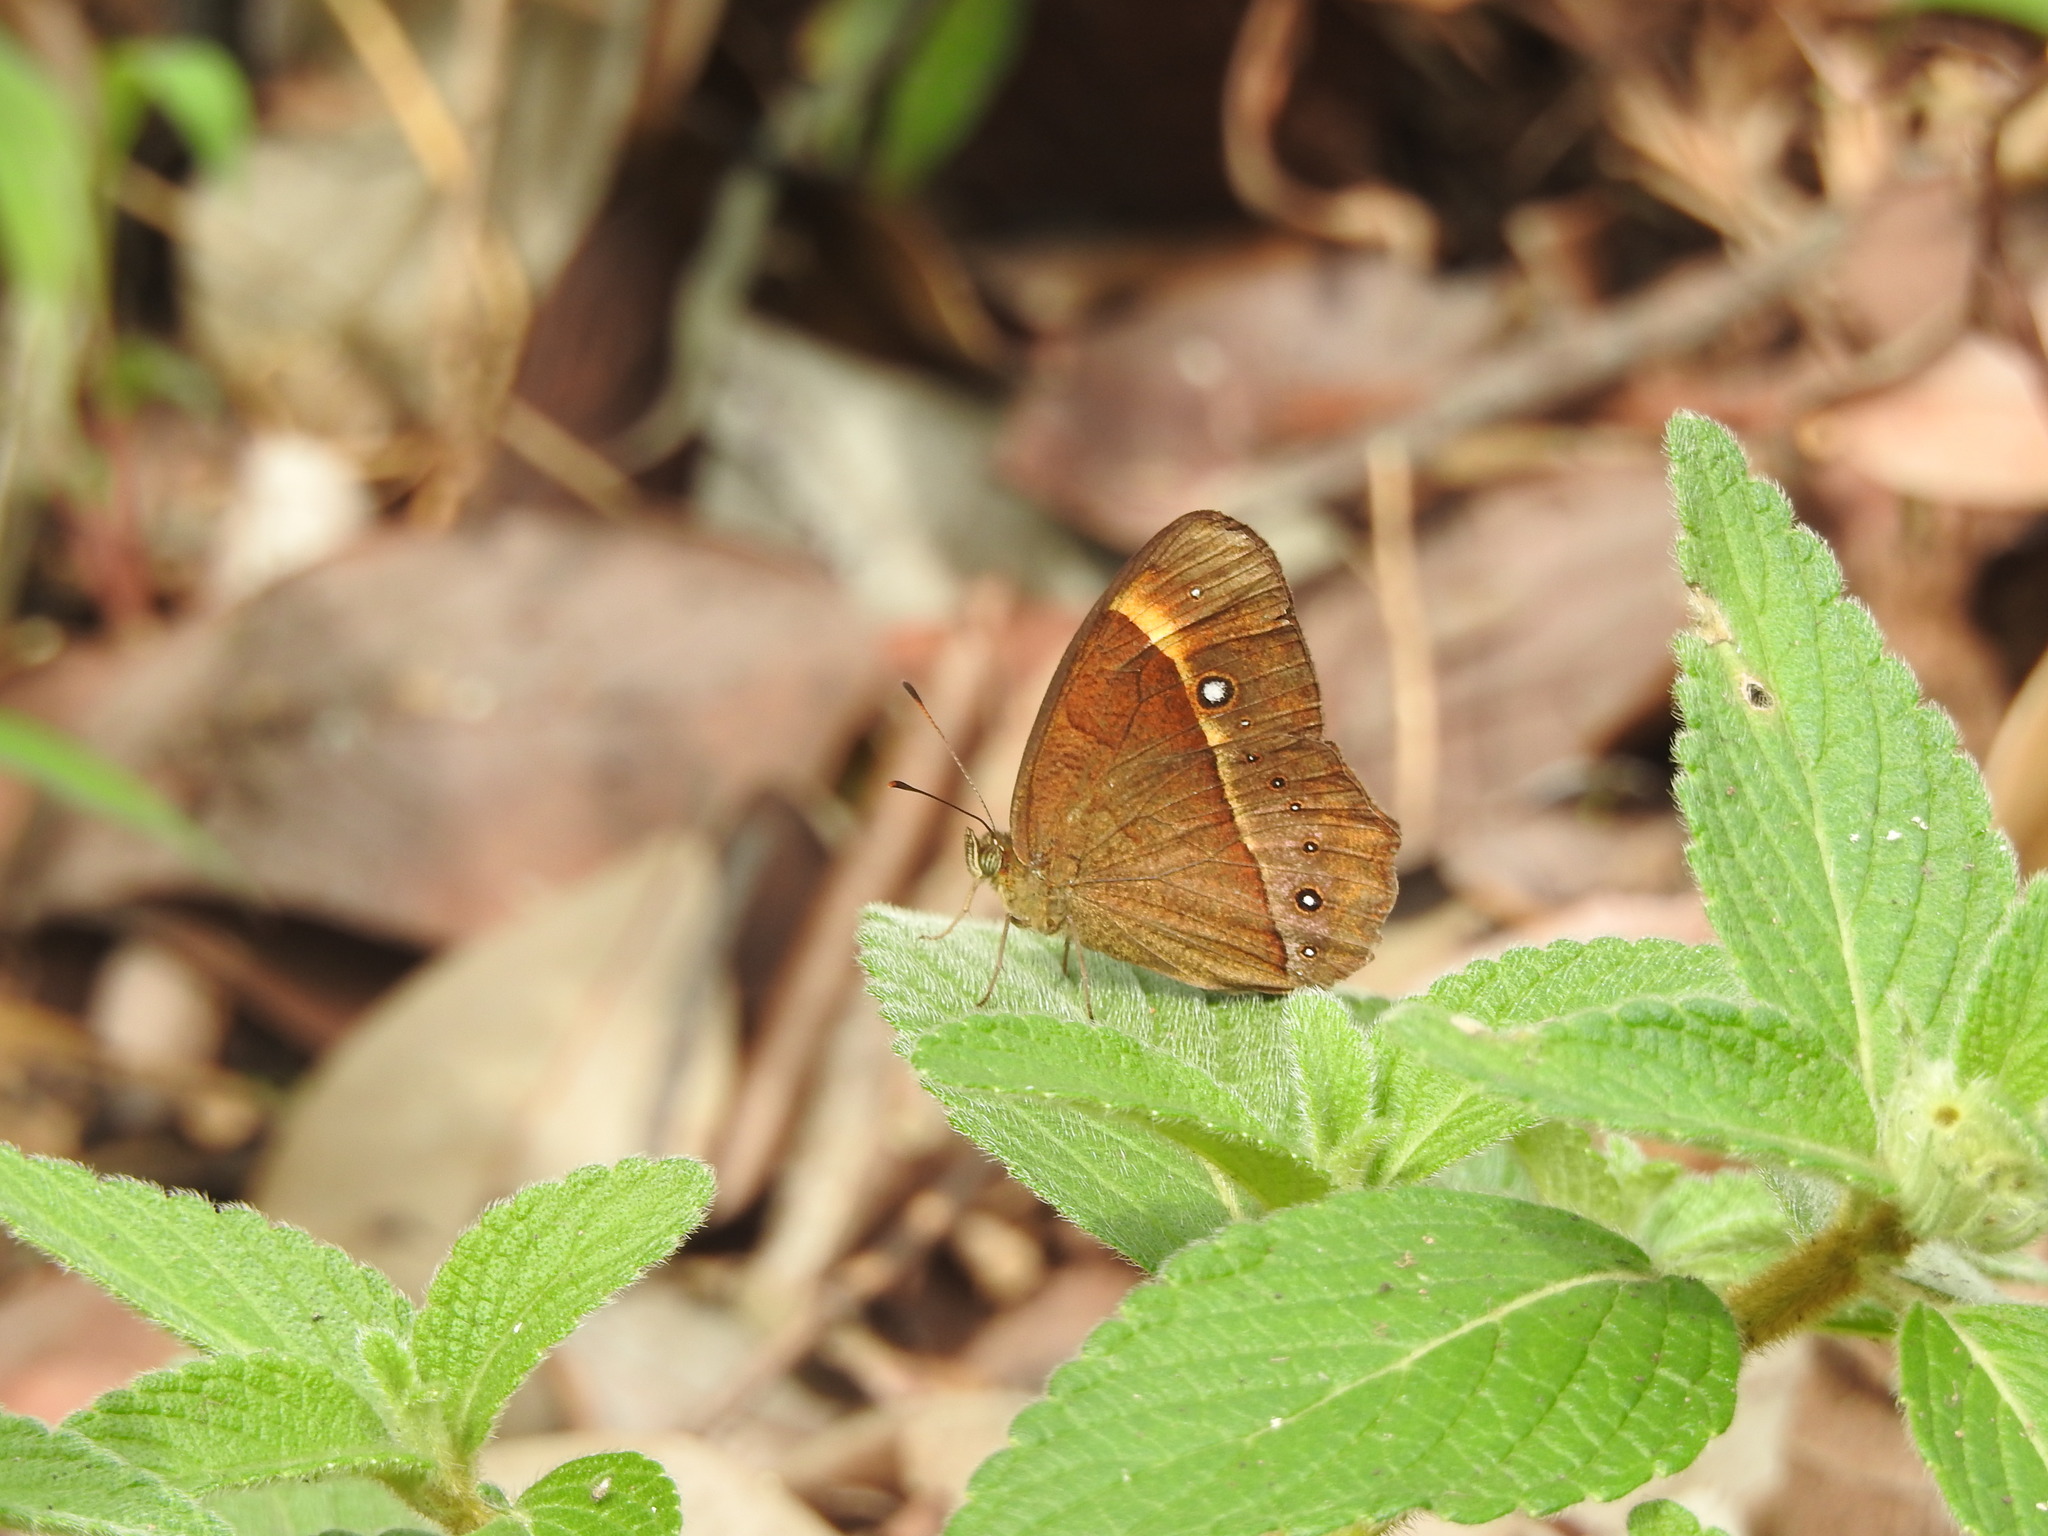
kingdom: Animalia
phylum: Arthropoda
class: Insecta
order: Lepidoptera
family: Nymphalidae
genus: Mycalesis
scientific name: Mycalesis Telinga oculus
